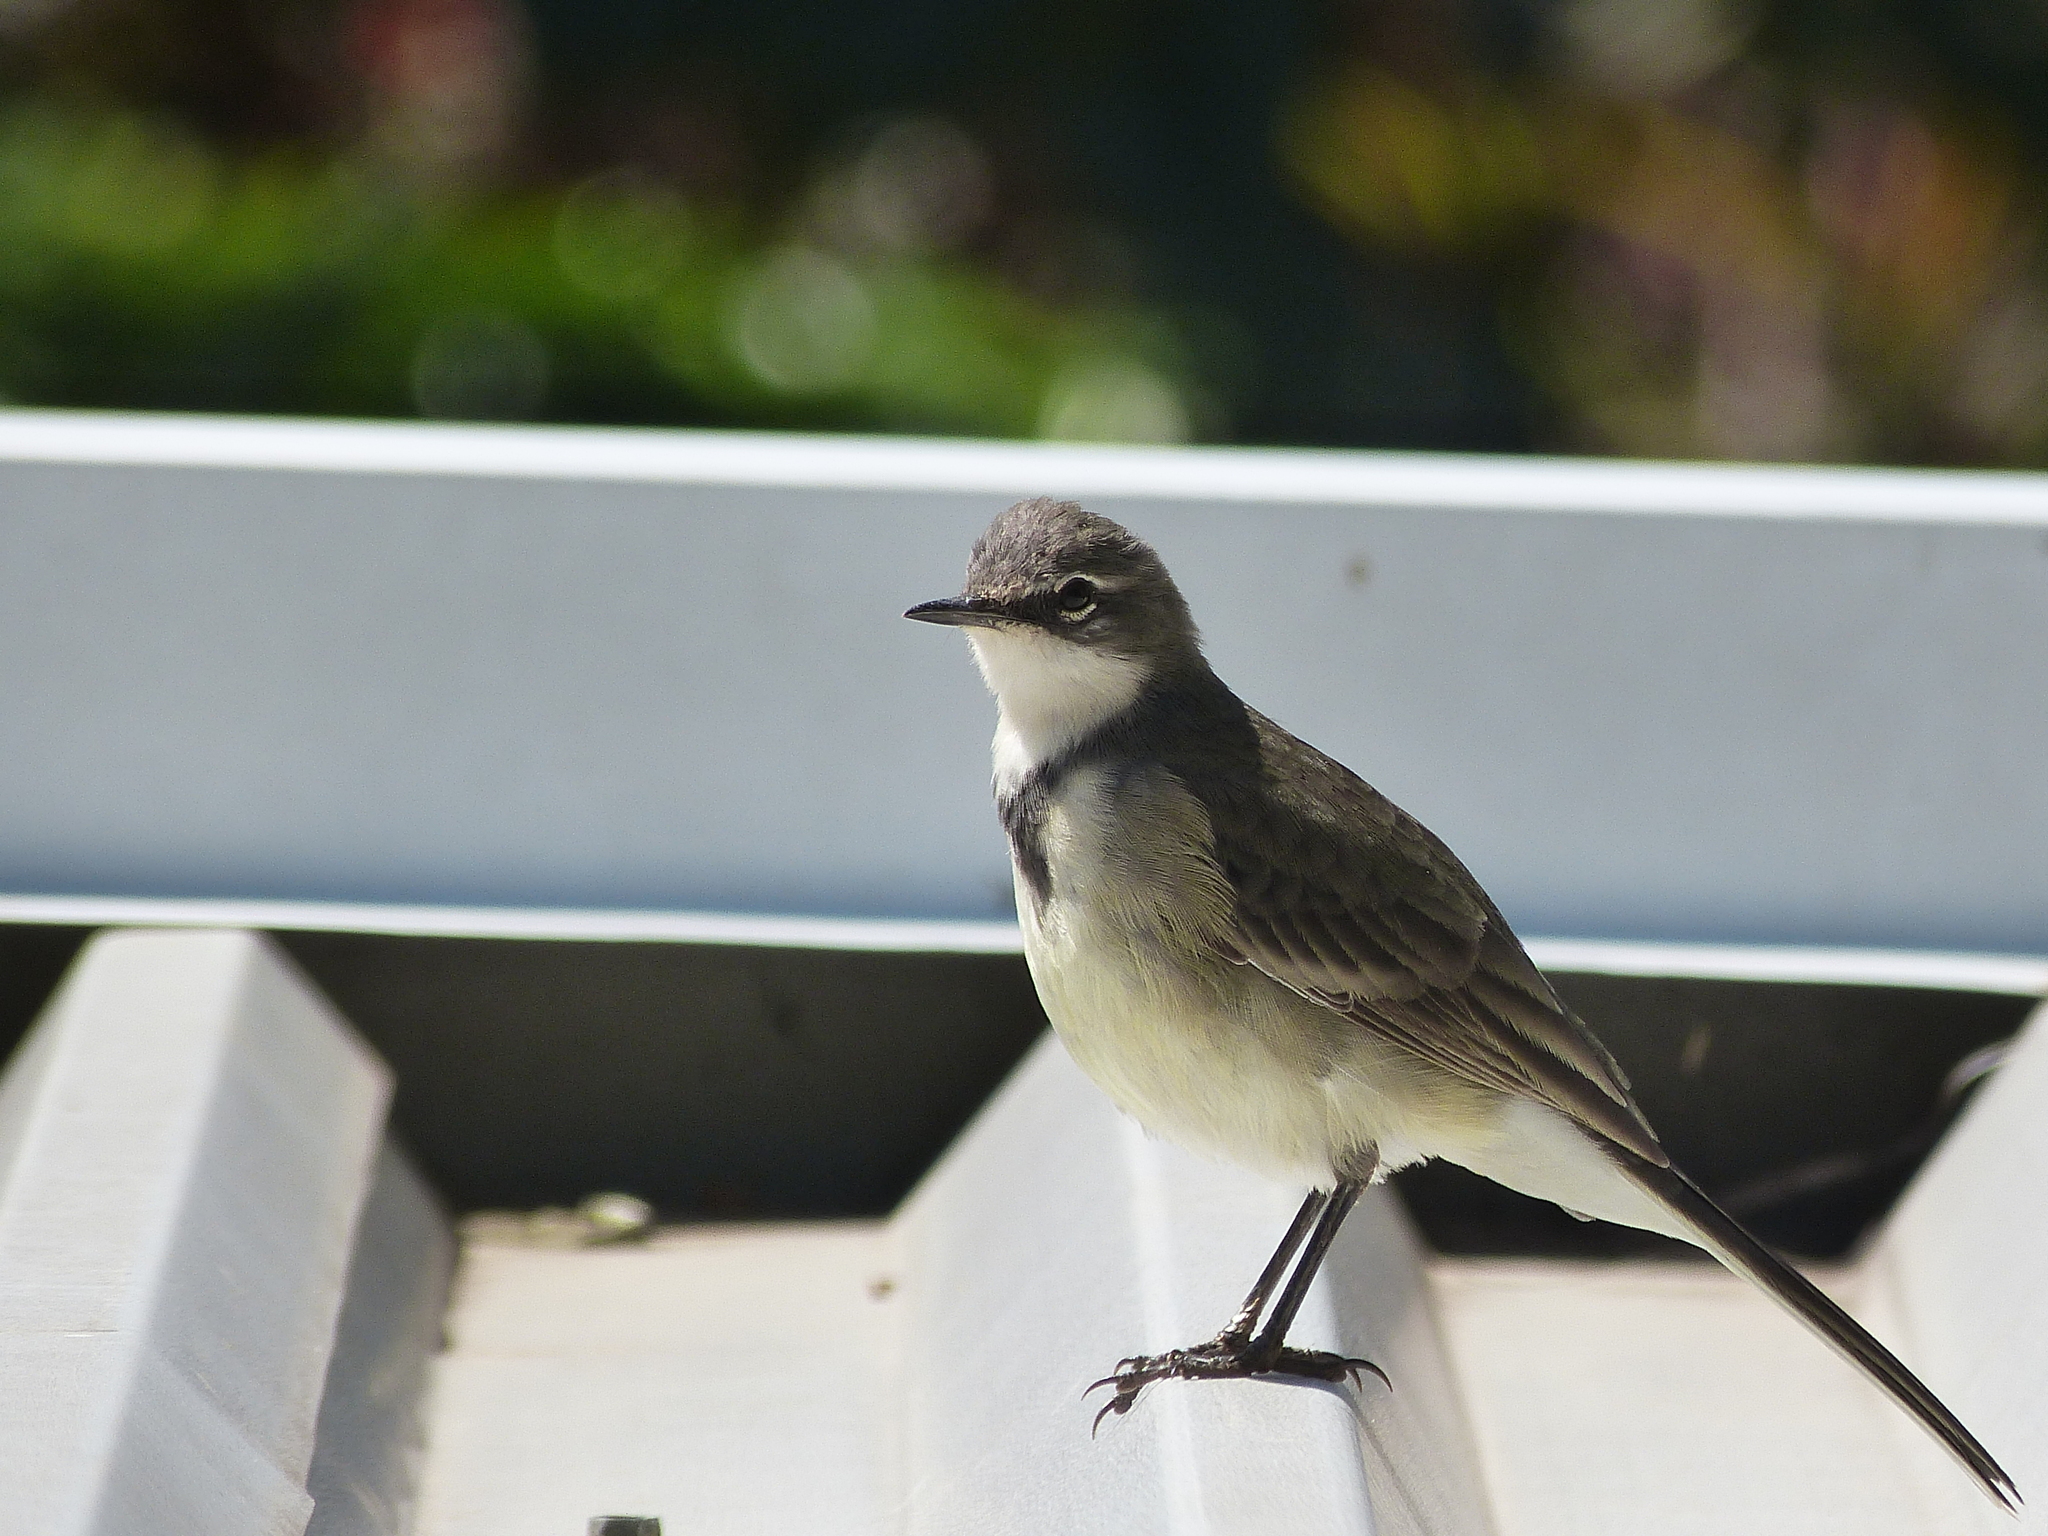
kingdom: Animalia
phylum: Chordata
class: Aves
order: Passeriformes
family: Motacillidae
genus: Motacilla
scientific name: Motacilla capensis
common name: Cape wagtail
